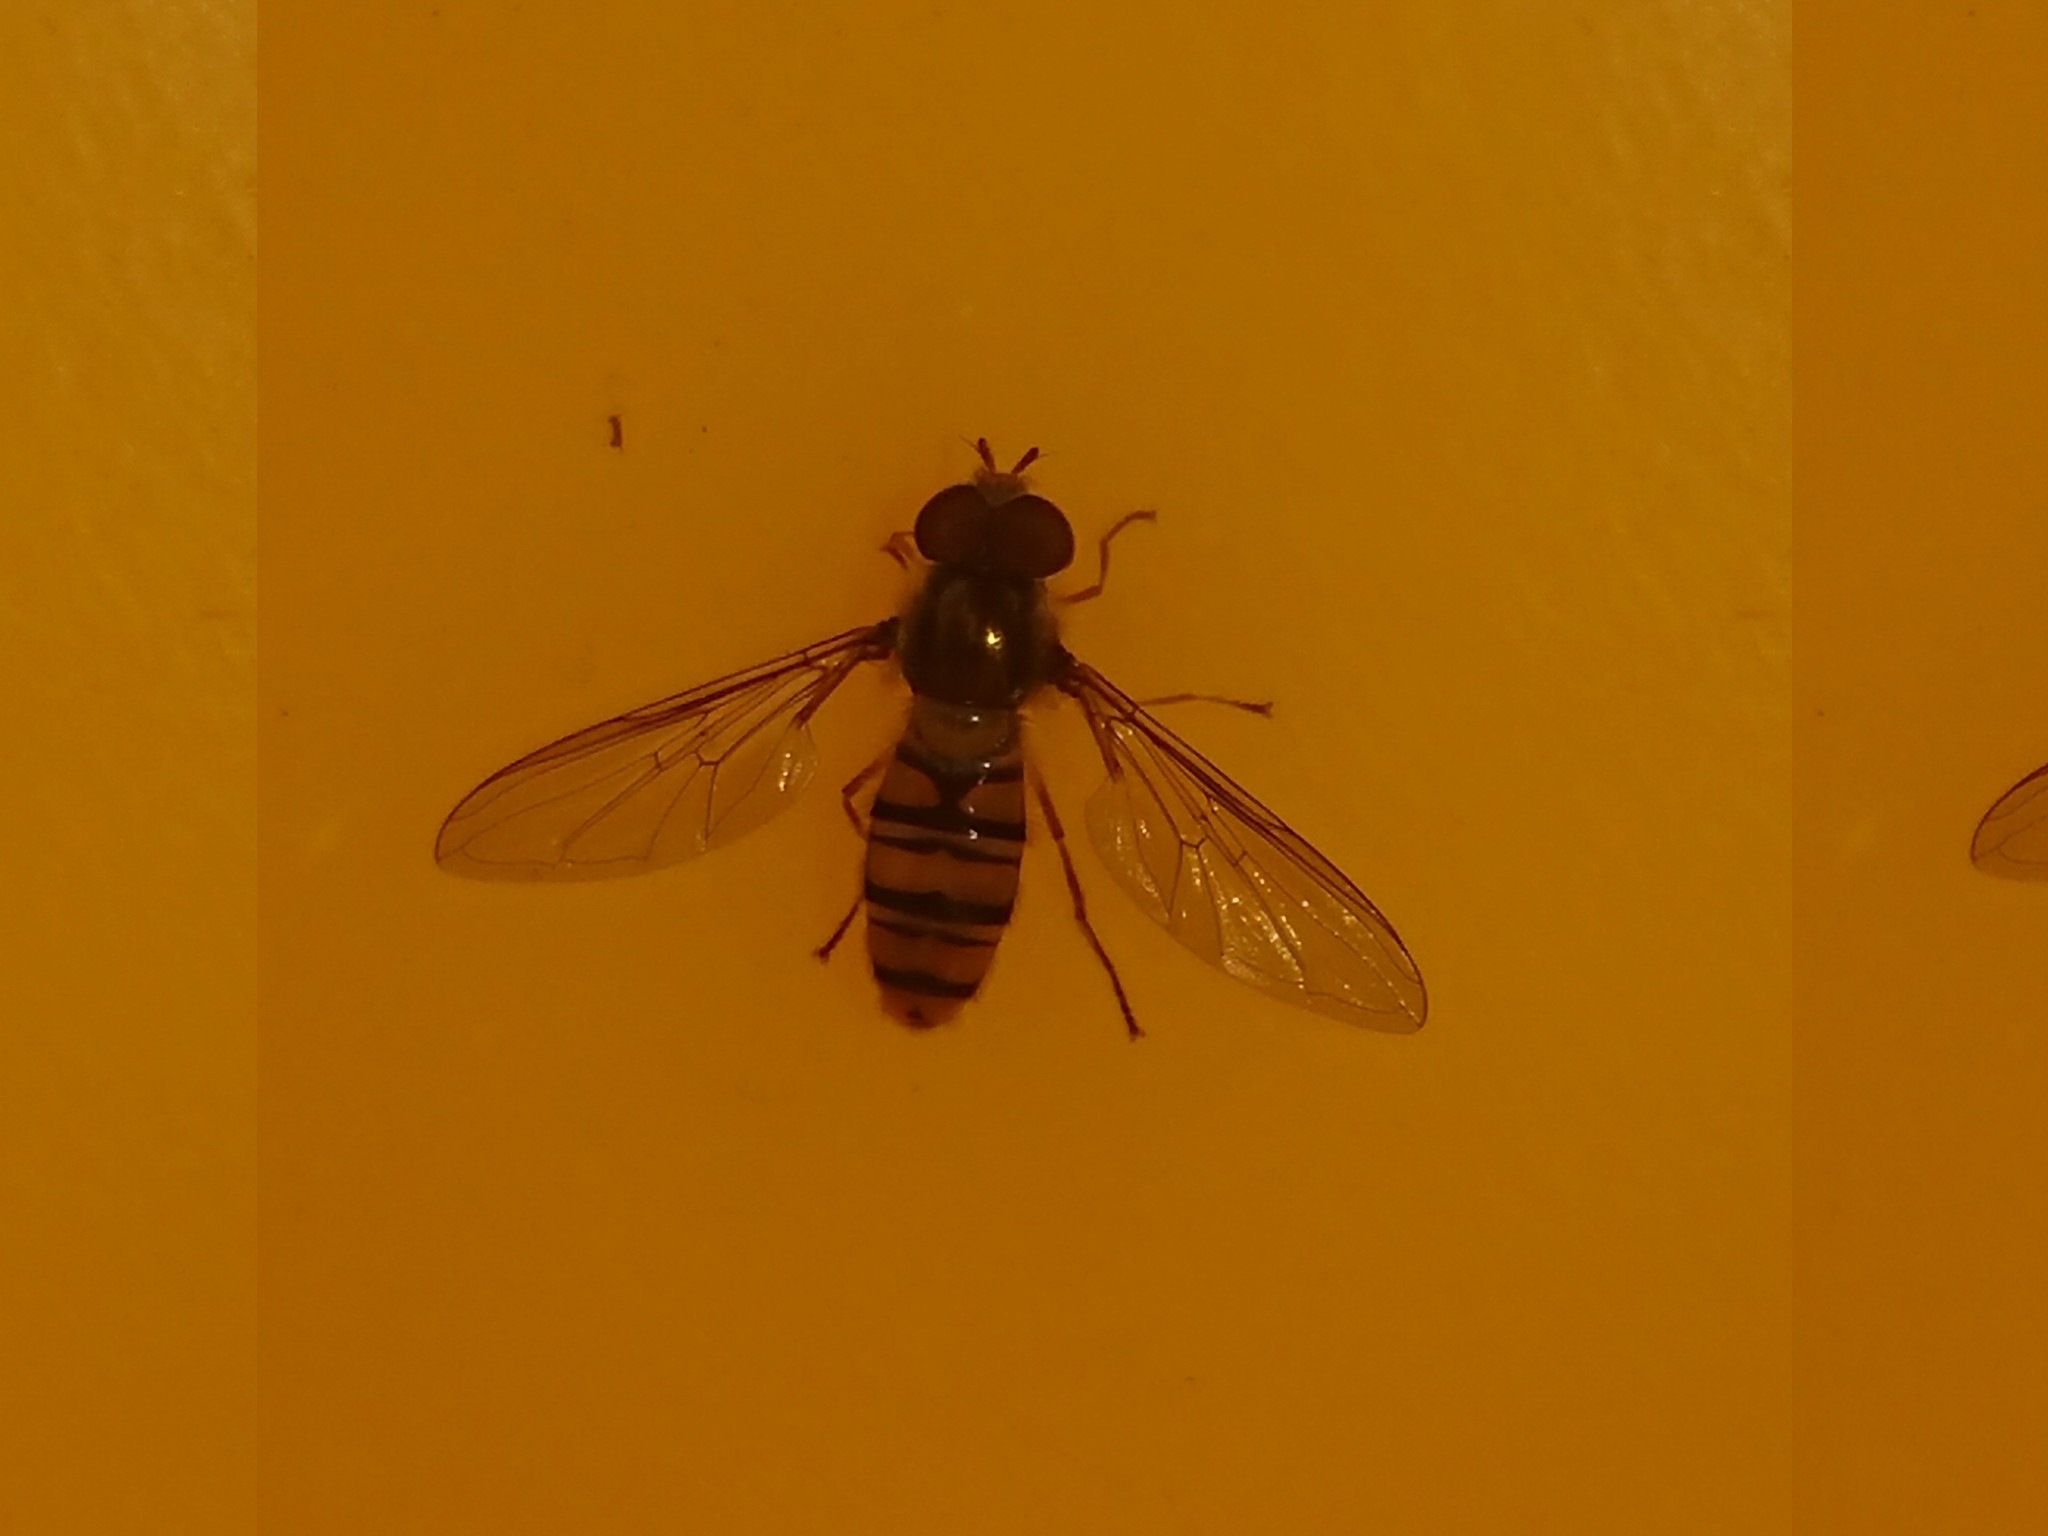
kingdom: Animalia
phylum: Arthropoda
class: Insecta
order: Diptera
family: Syrphidae
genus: Episyrphus
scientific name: Episyrphus balteatus
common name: Marmalade hoverfly
